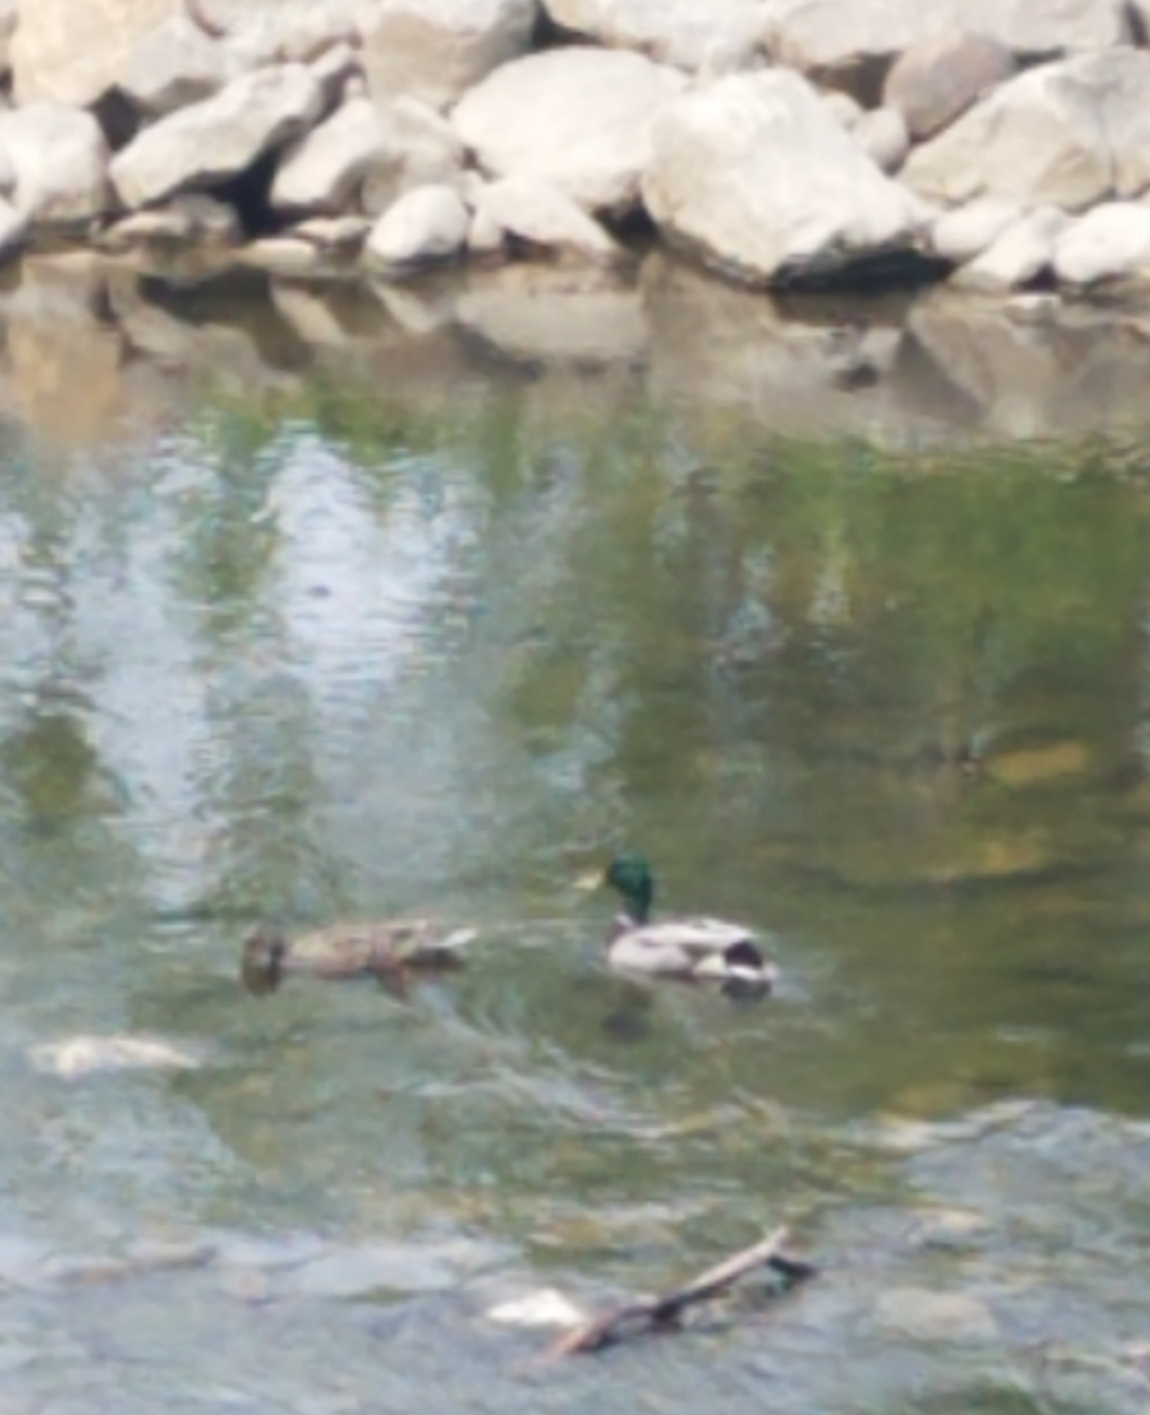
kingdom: Animalia
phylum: Chordata
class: Aves
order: Anseriformes
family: Anatidae
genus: Anas
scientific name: Anas platyrhynchos
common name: Mallard
